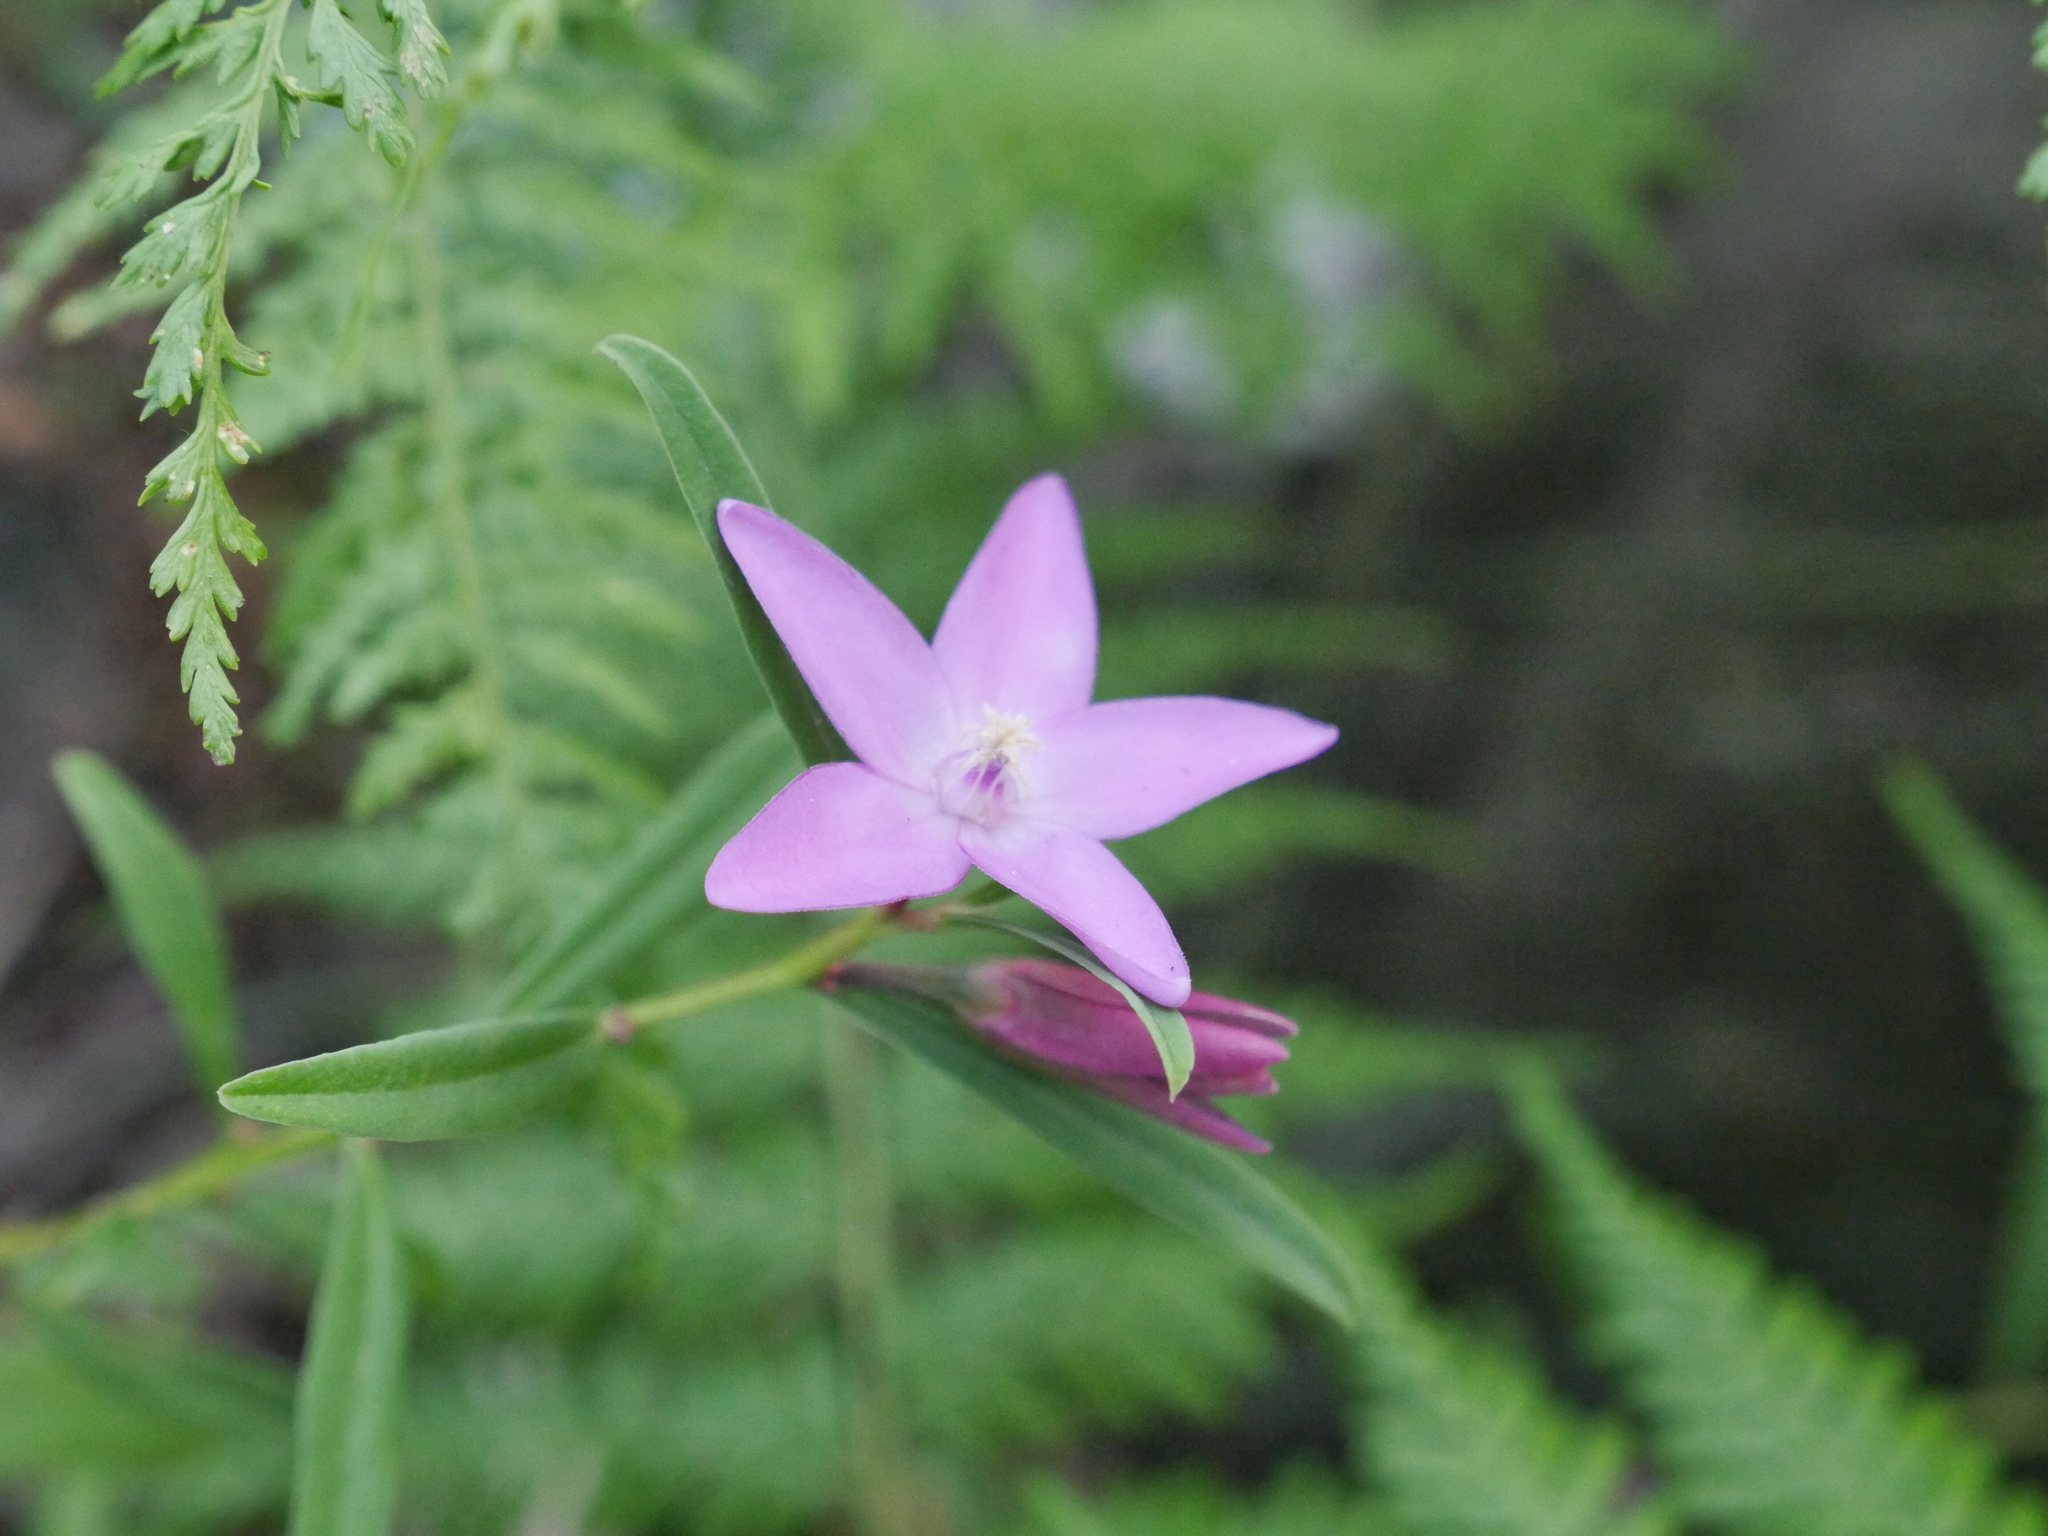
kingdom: Plantae
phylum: Tracheophyta
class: Magnoliopsida
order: Sapindales
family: Rutaceae
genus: Crowea
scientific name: Crowea saligna
